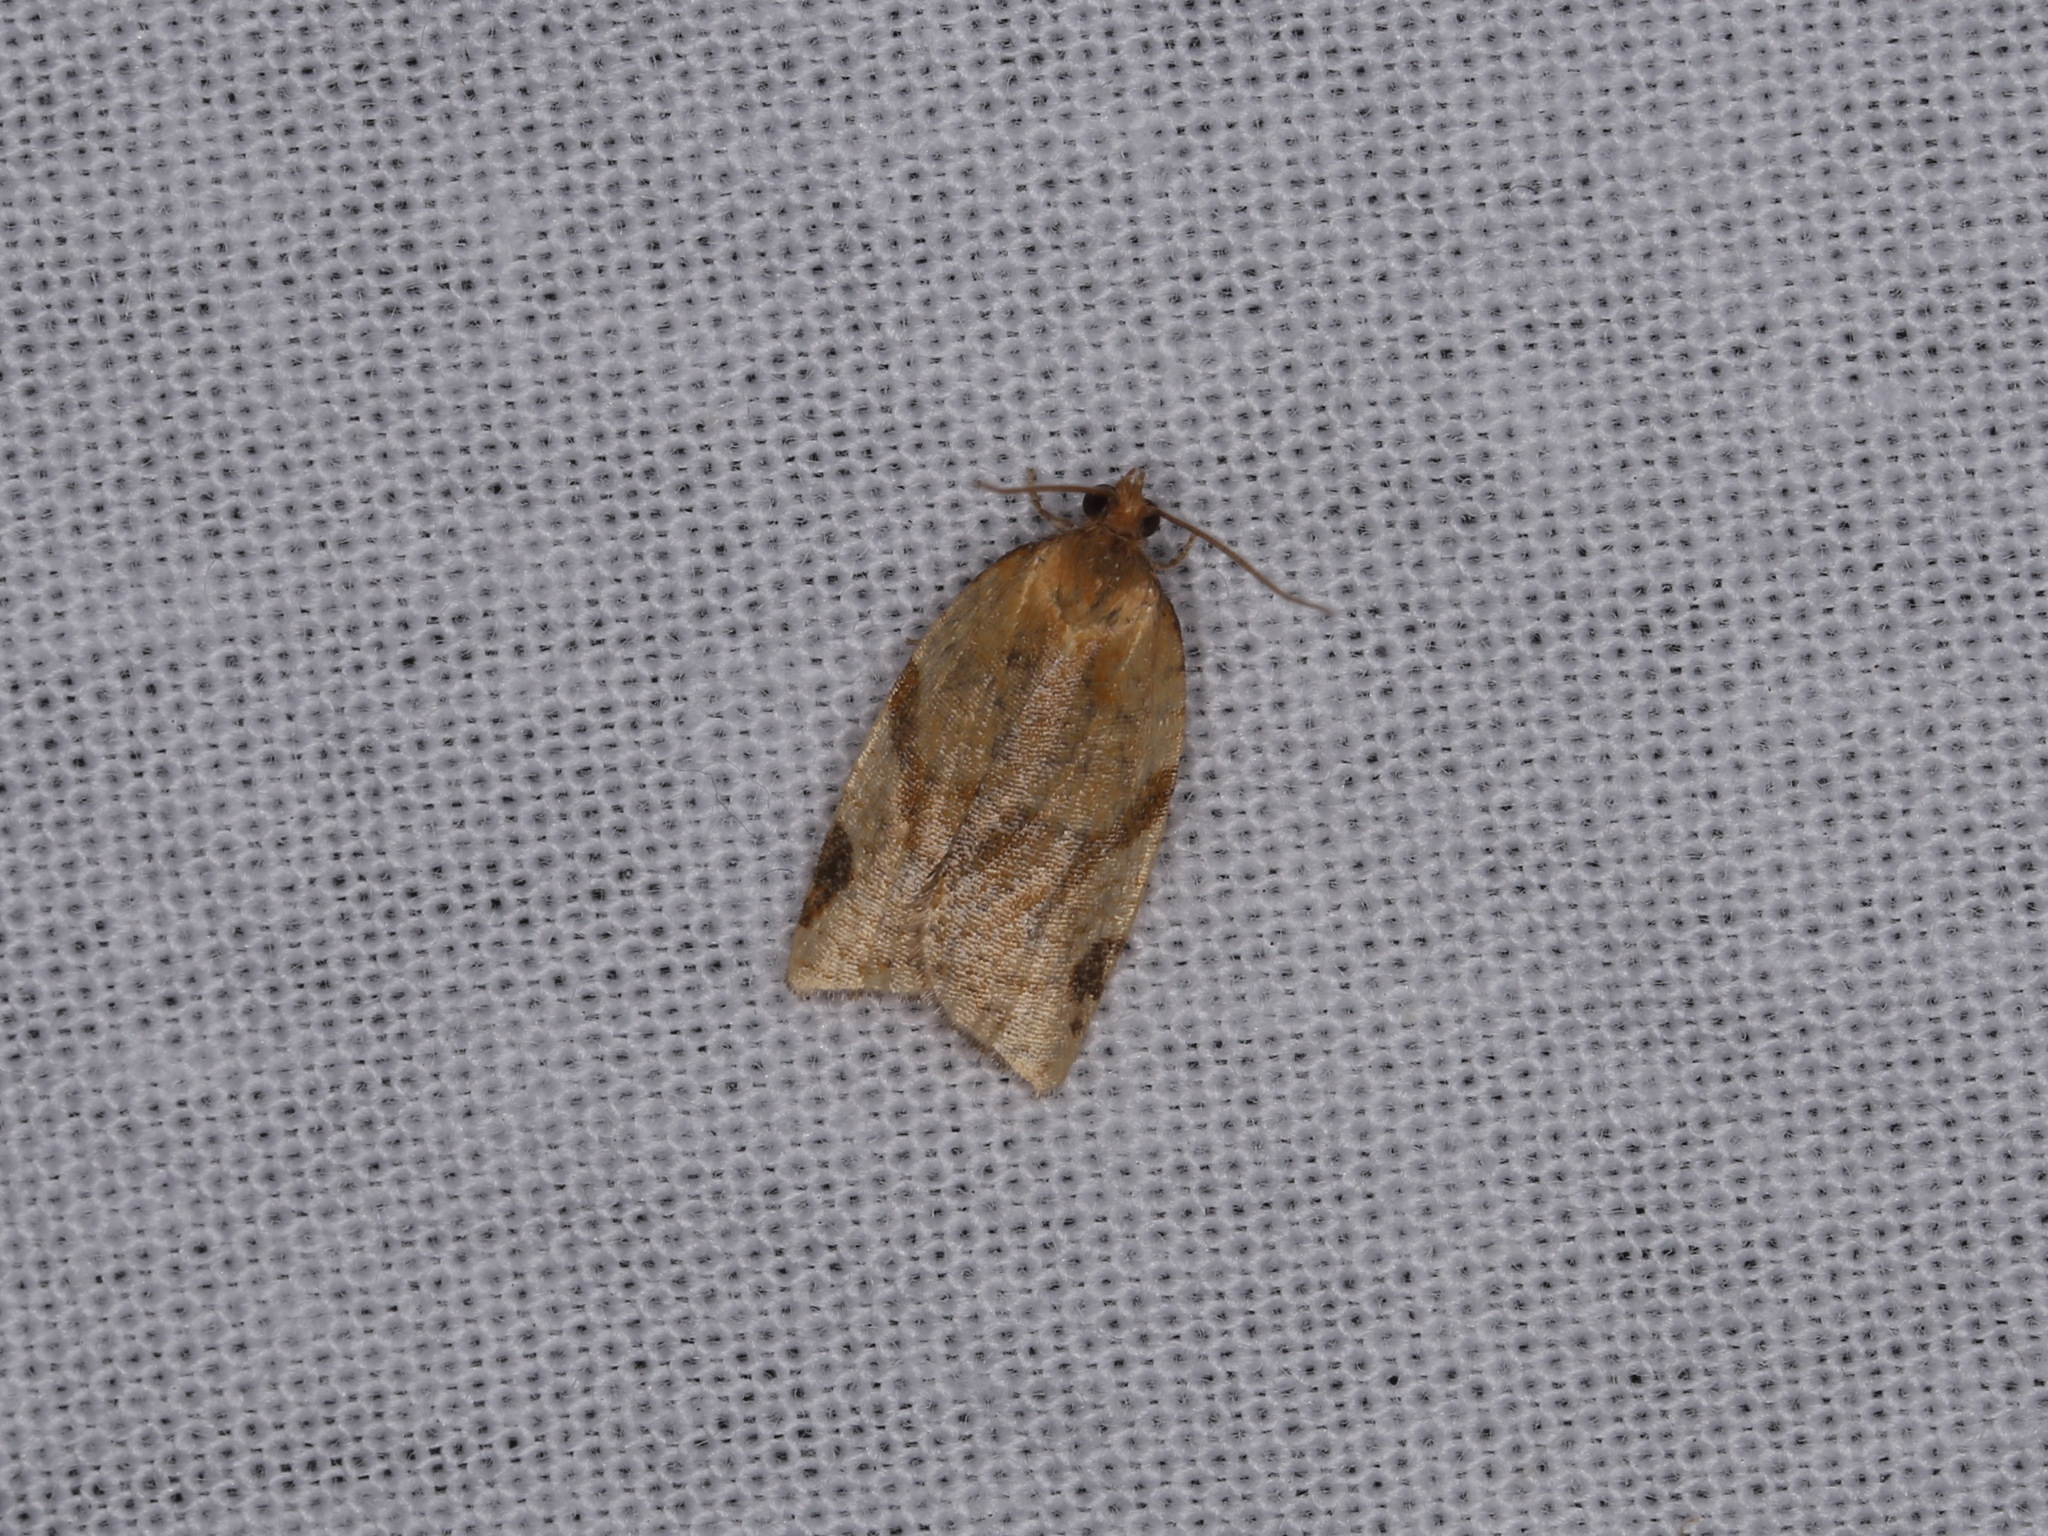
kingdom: Animalia
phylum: Arthropoda
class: Insecta
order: Lepidoptera
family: Tortricidae
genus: Paramesia
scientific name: Paramesia gnomana
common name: Small straw twist
